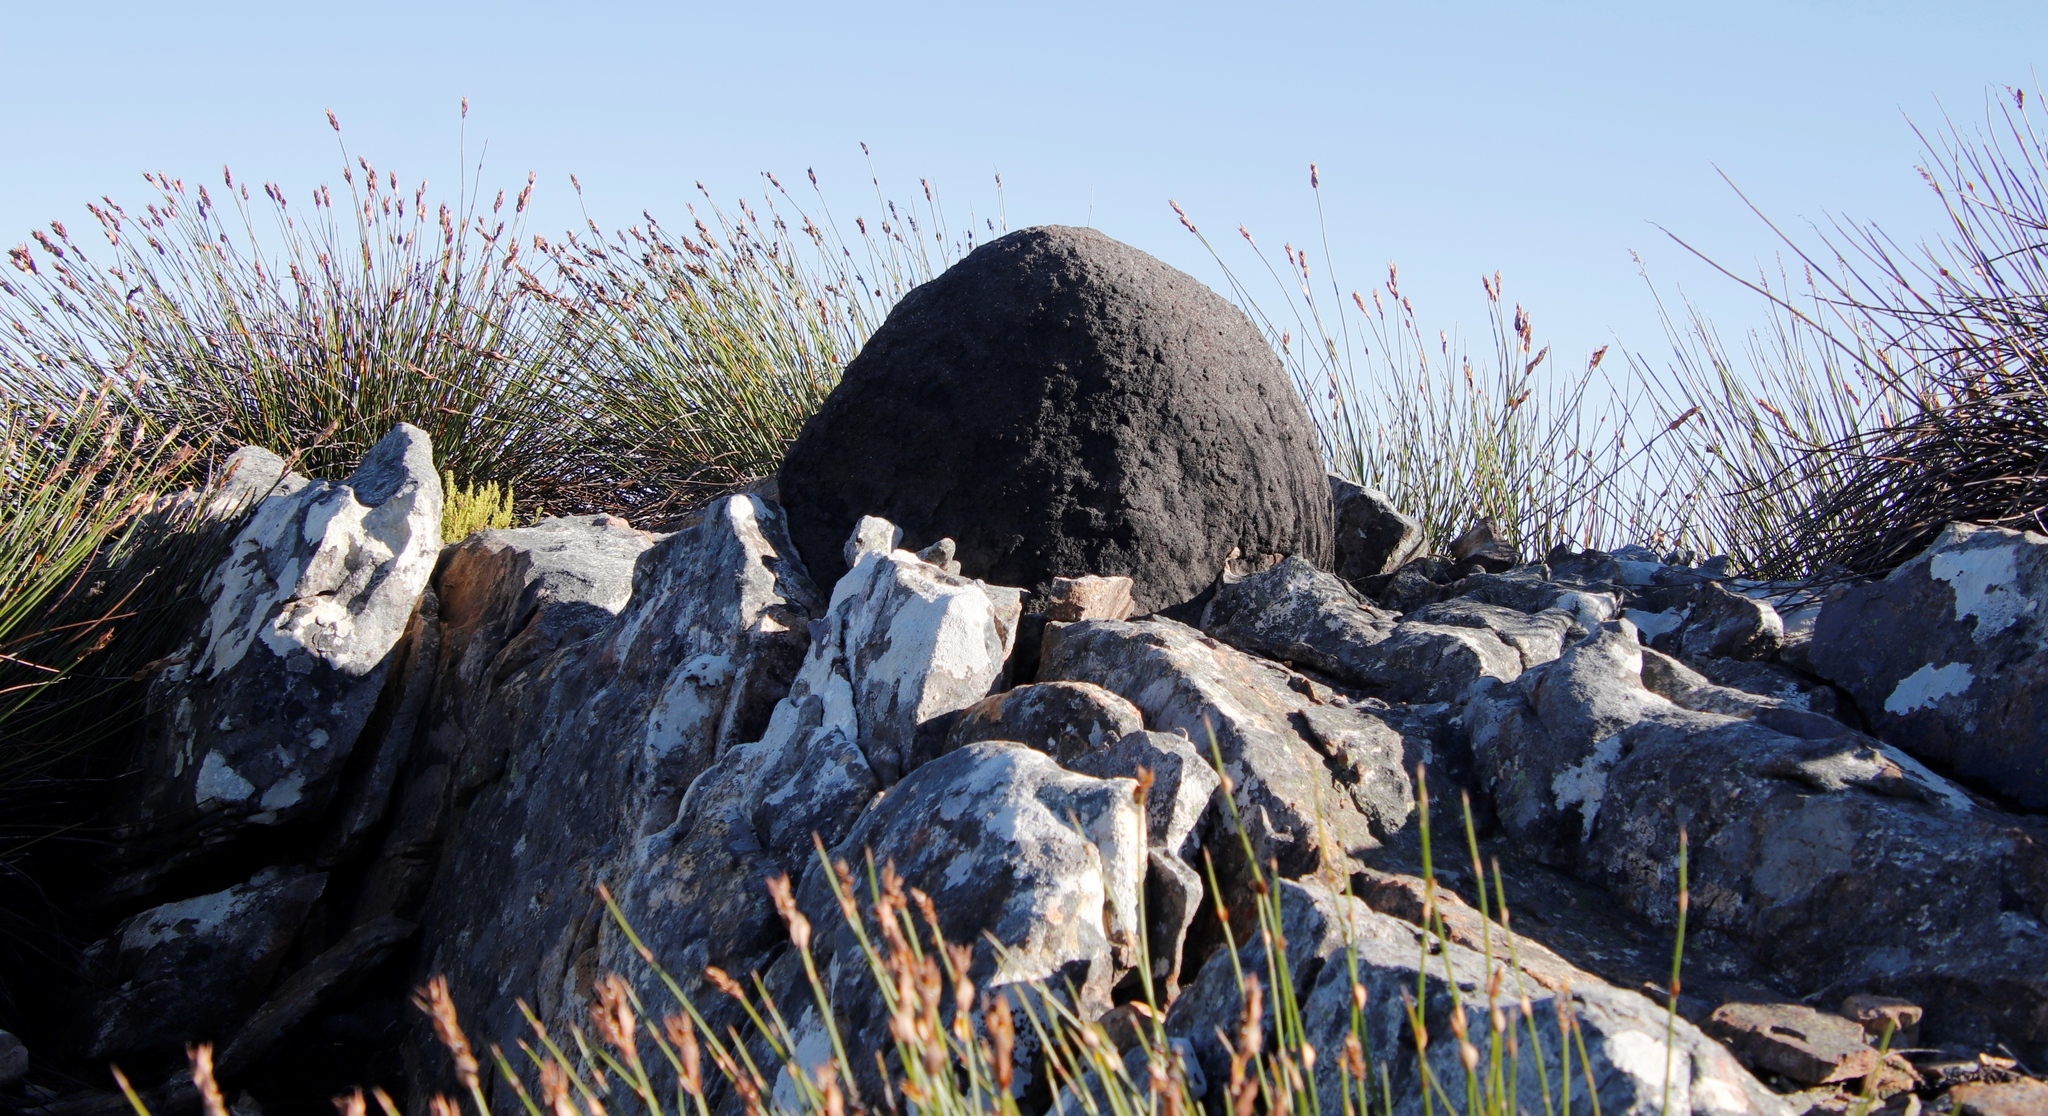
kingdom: Animalia
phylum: Arthropoda
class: Insecta
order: Blattodea
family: Termitidae
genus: Amitermes
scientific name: Amitermes hastatus
